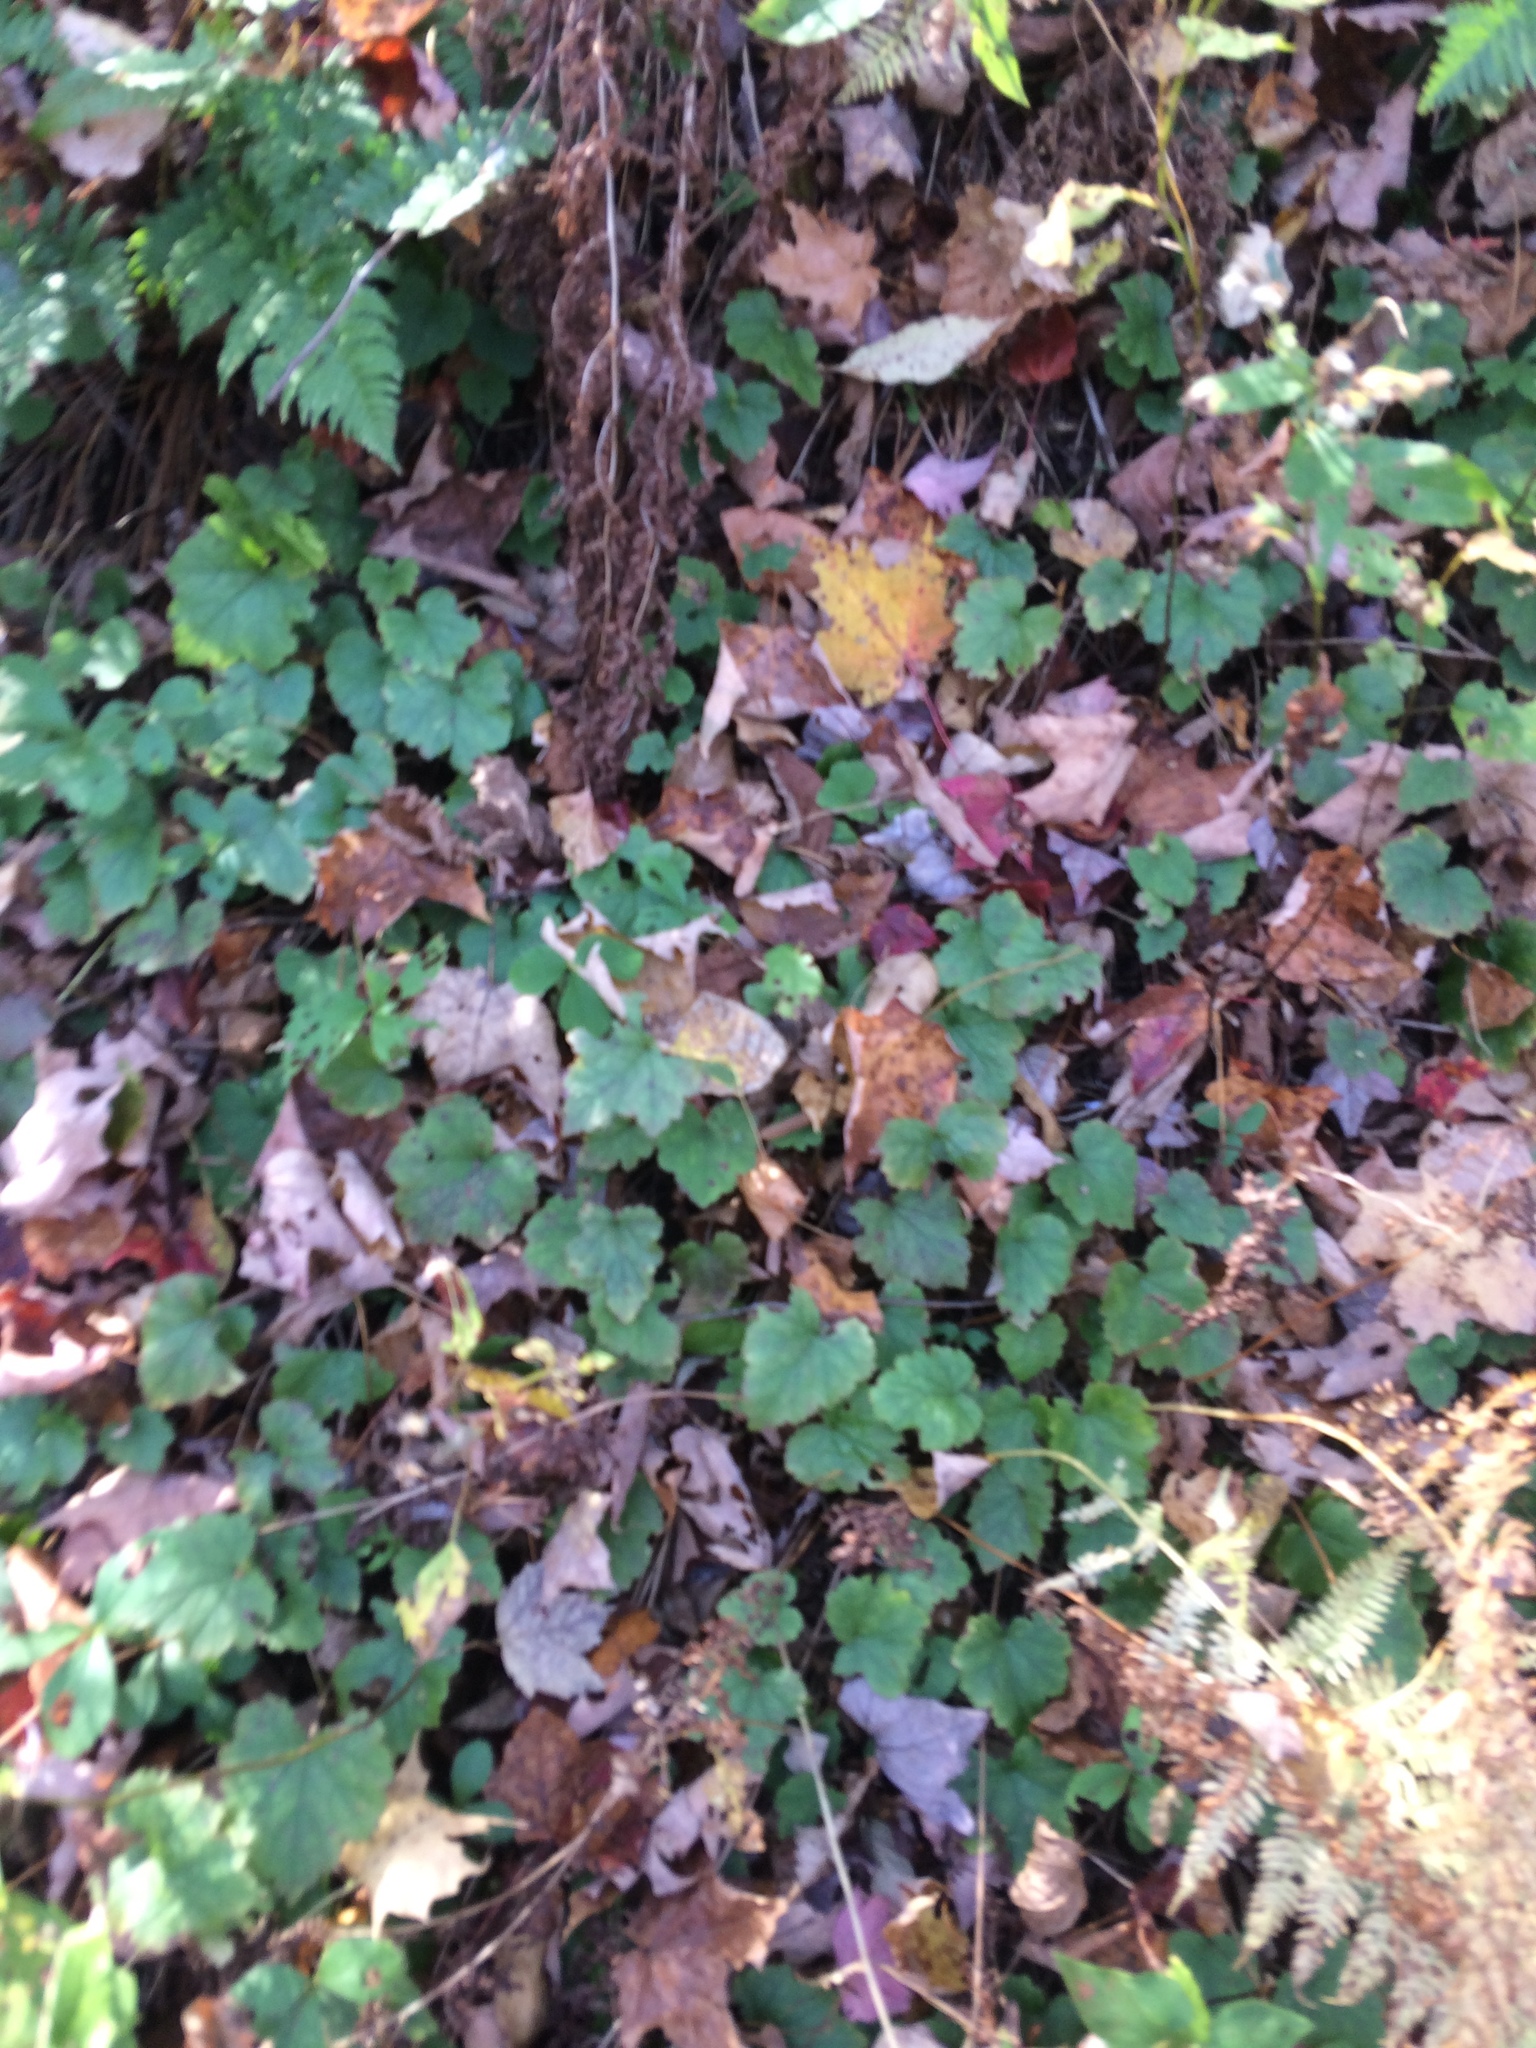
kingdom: Plantae
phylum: Tracheophyta
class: Magnoliopsida
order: Saxifragales
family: Saxifragaceae
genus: Tiarella
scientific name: Tiarella stolonifera
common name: Stoloniferous foamflower
